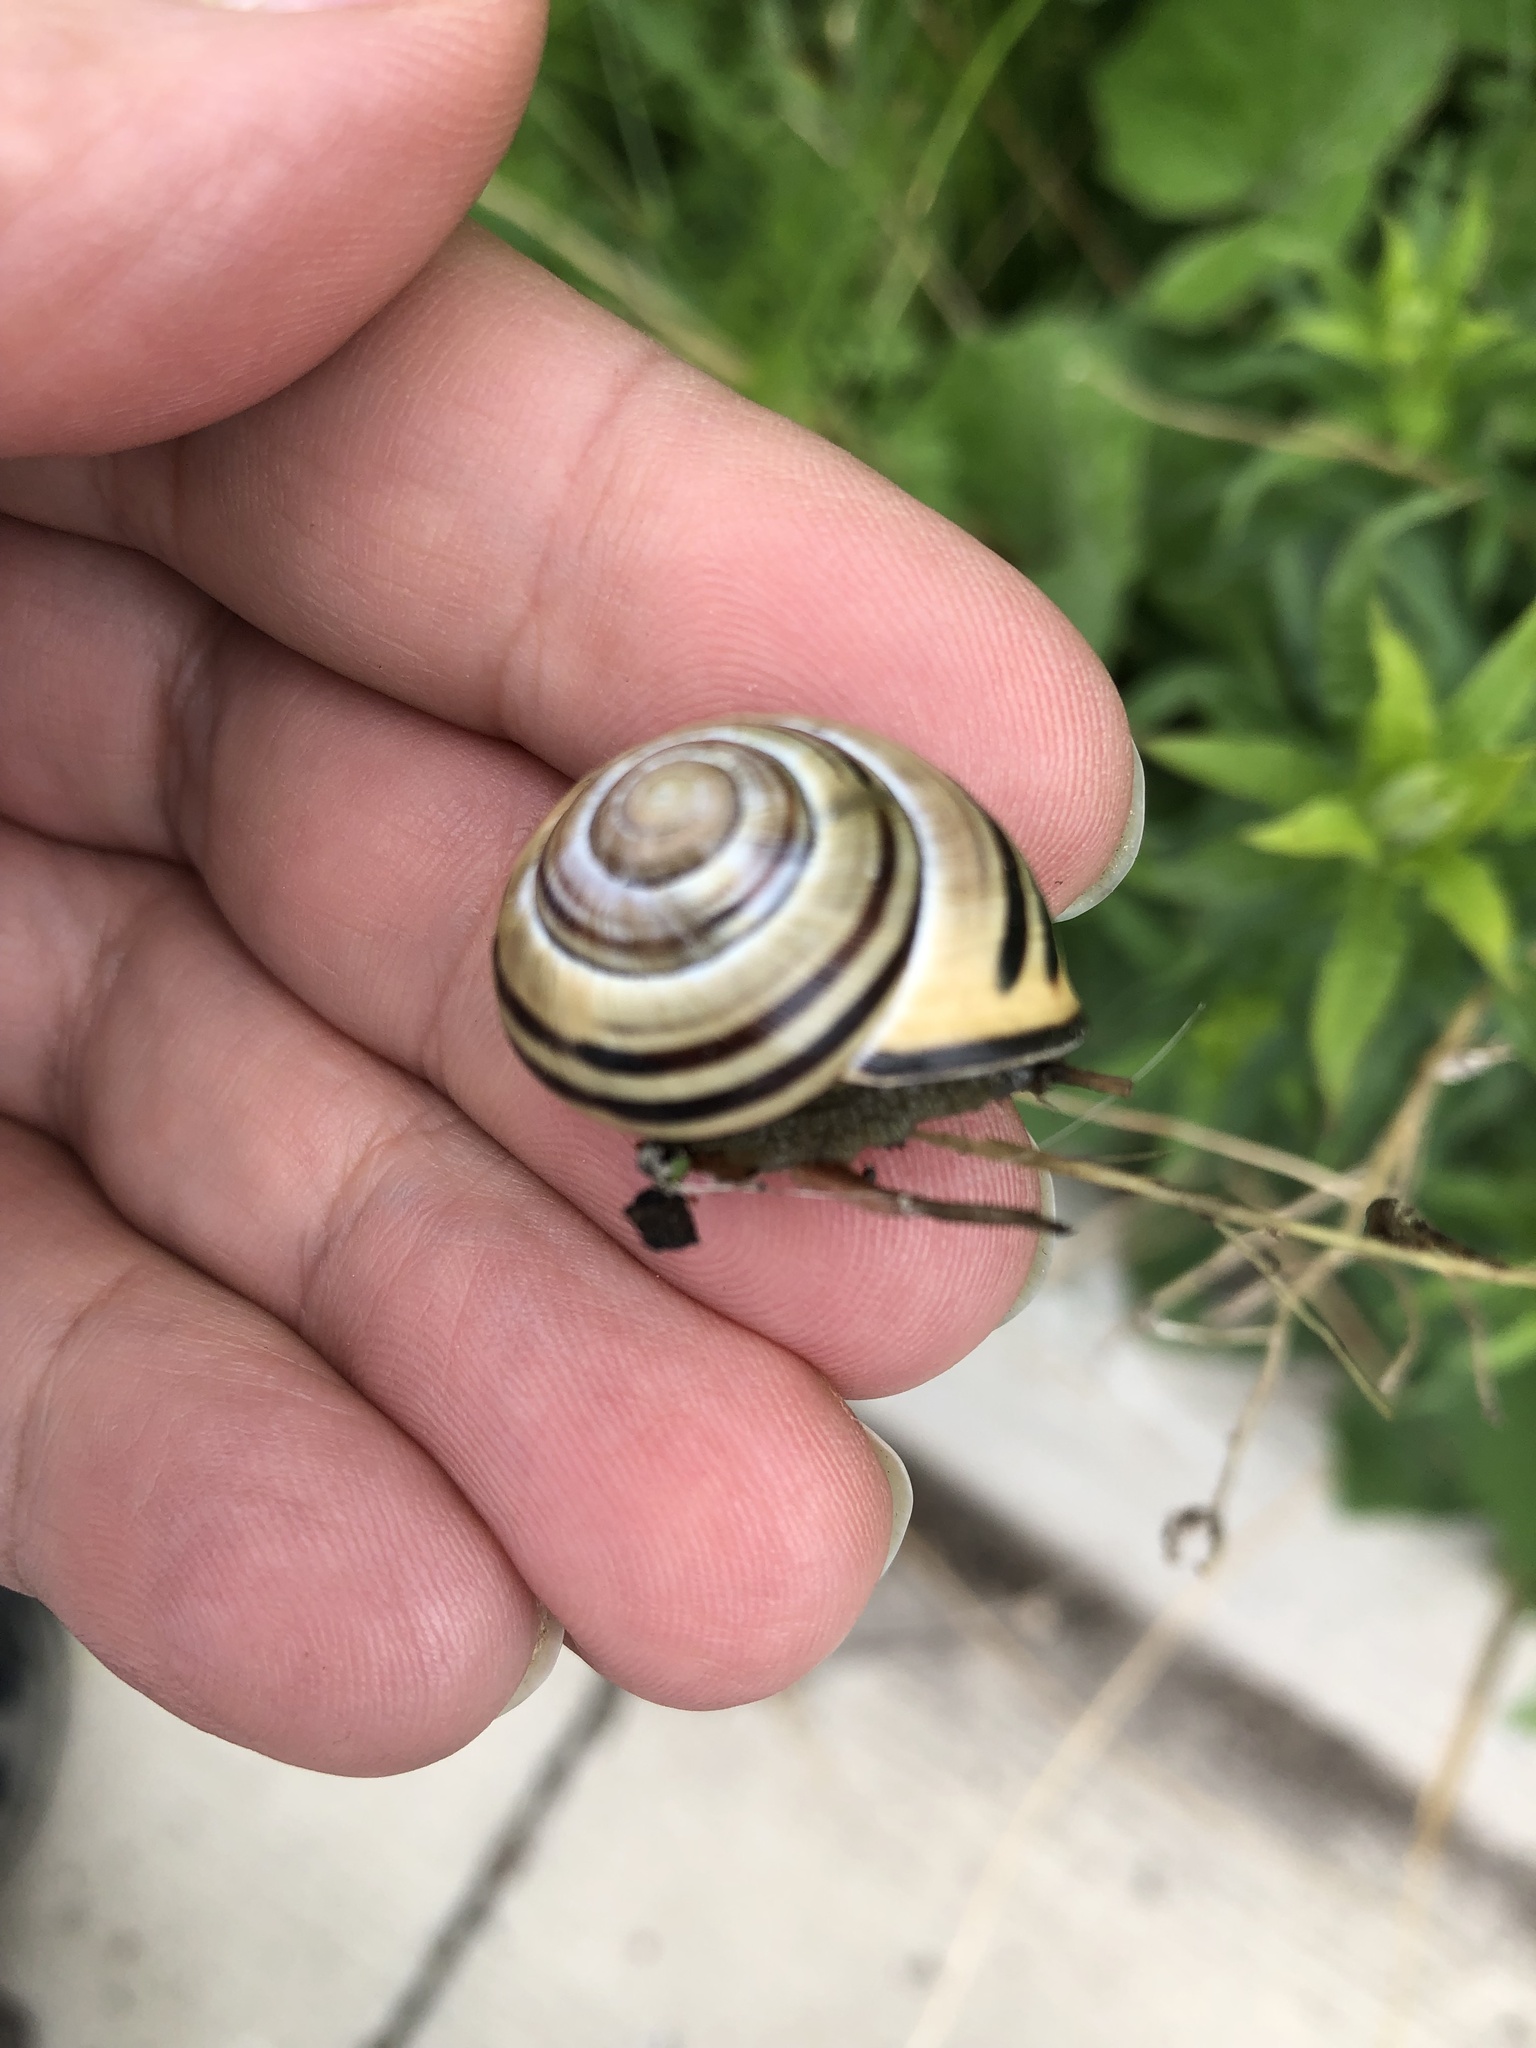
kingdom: Animalia
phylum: Mollusca
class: Gastropoda
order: Stylommatophora
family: Helicidae
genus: Cepaea
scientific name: Cepaea nemoralis
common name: Grovesnail
